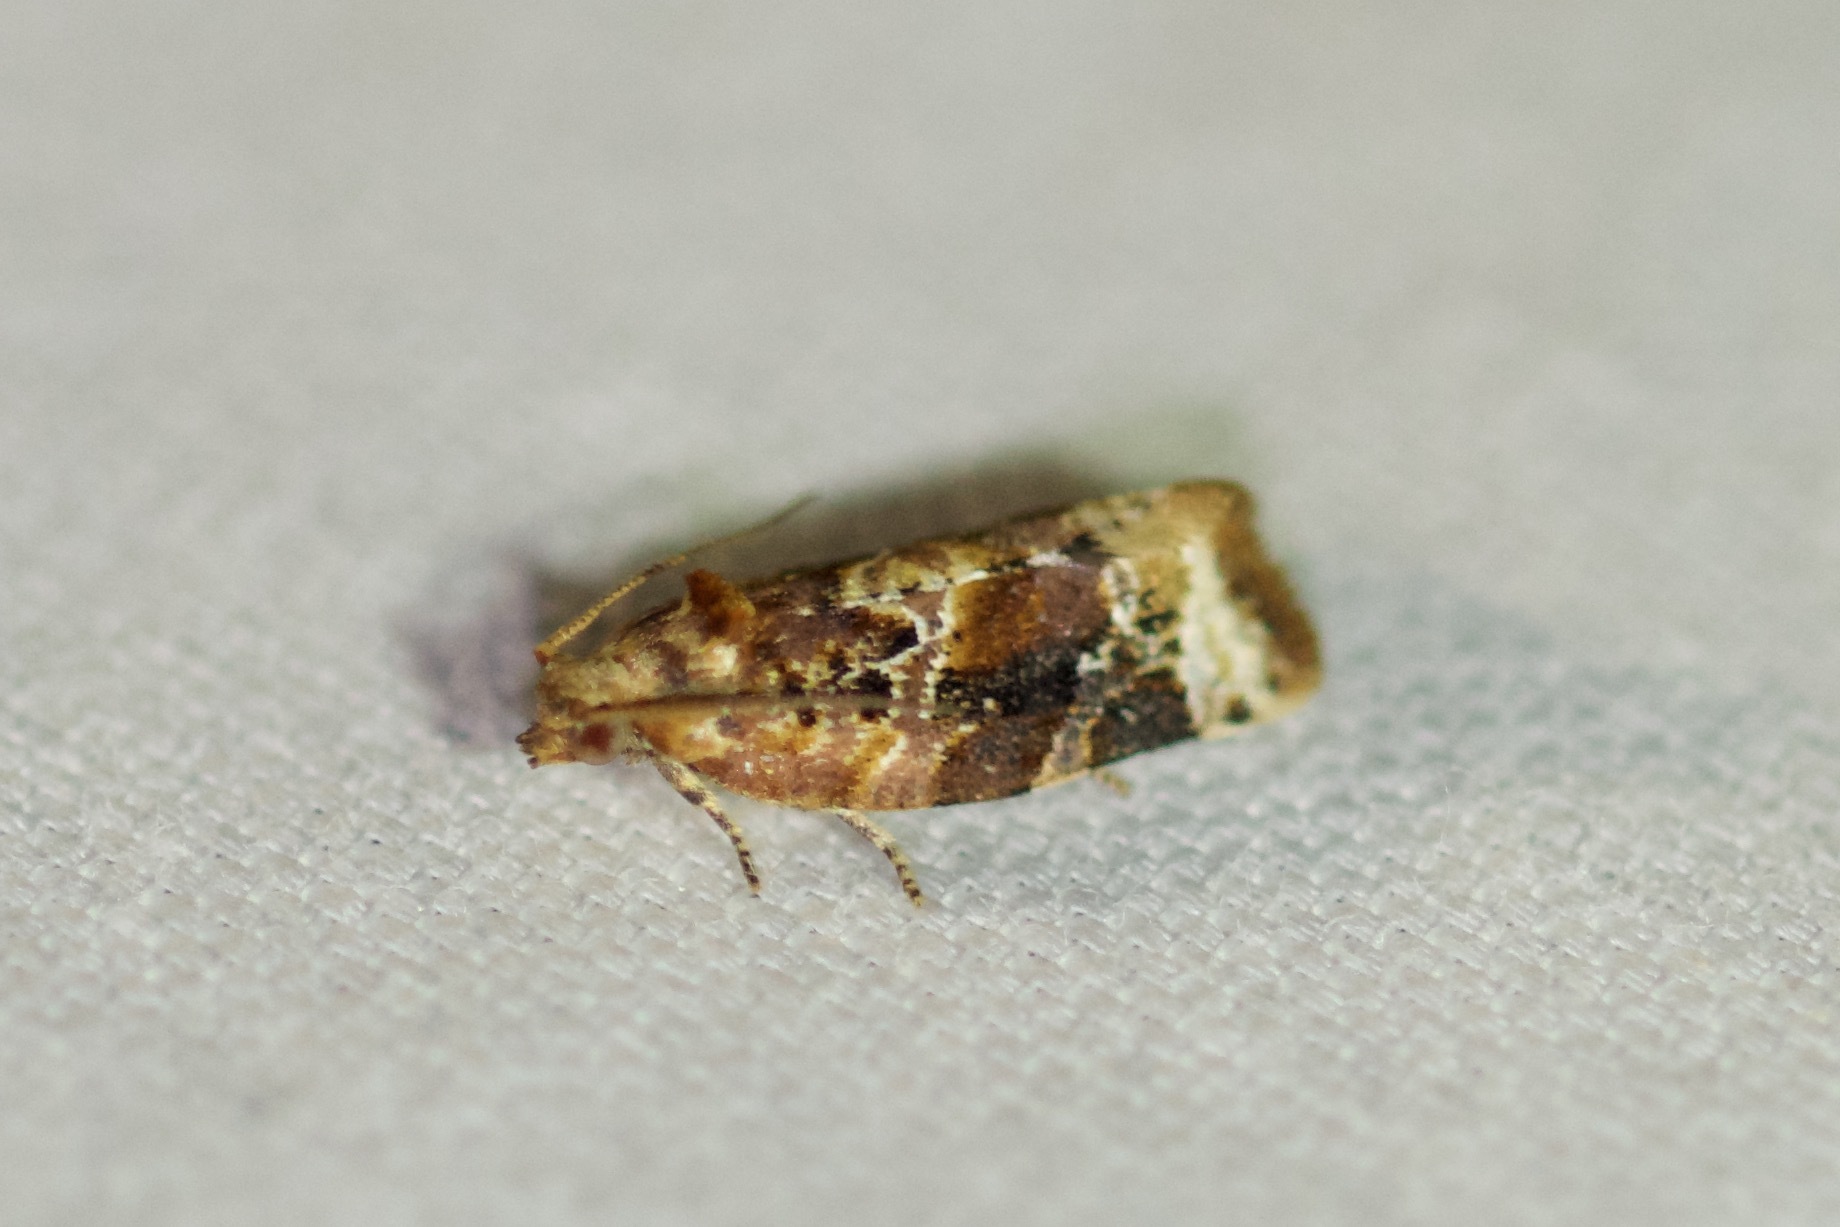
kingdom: Animalia
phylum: Arthropoda
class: Insecta
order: Lepidoptera
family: Tortricidae
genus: Argyrotaenia
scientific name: Argyrotaenia velutinana
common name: Red-banded leafroller moth
